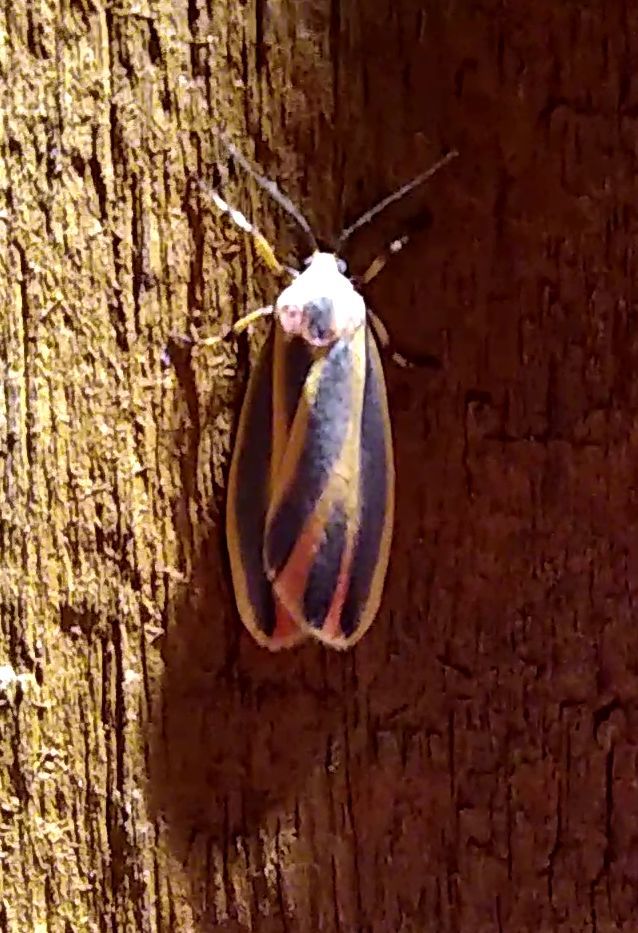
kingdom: Animalia
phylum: Arthropoda
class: Insecta
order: Lepidoptera
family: Erebidae
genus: Hypoprepia
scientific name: Hypoprepia fucosa
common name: Painted lichen moth
